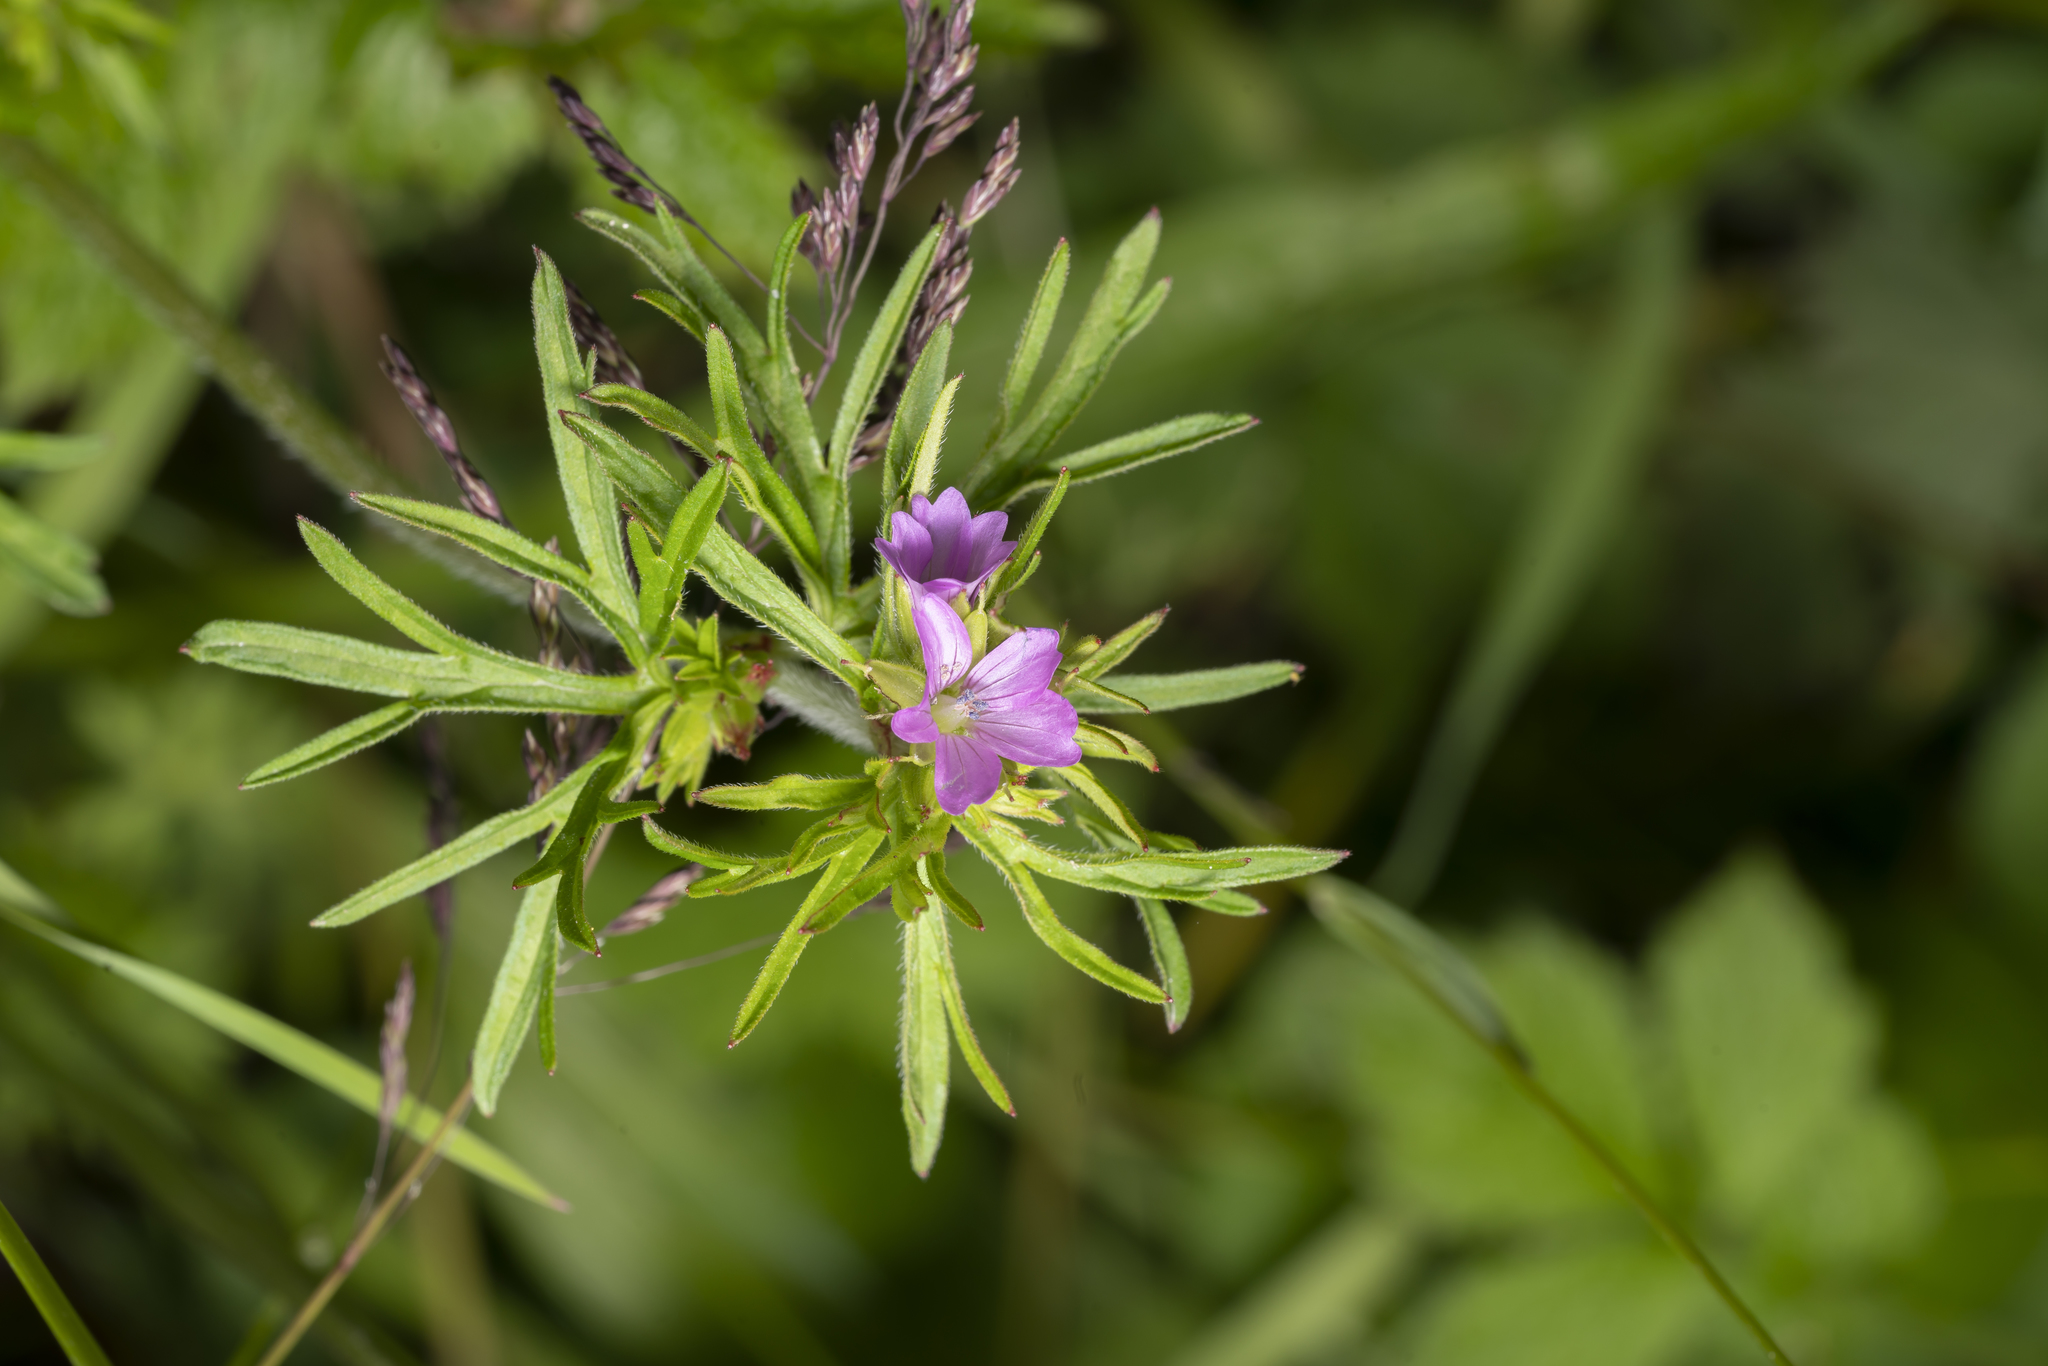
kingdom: Plantae
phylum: Tracheophyta
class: Magnoliopsida
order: Geraniales
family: Geraniaceae
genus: Geranium
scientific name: Geranium dissectum
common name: Cut-leaved crane's-bill
